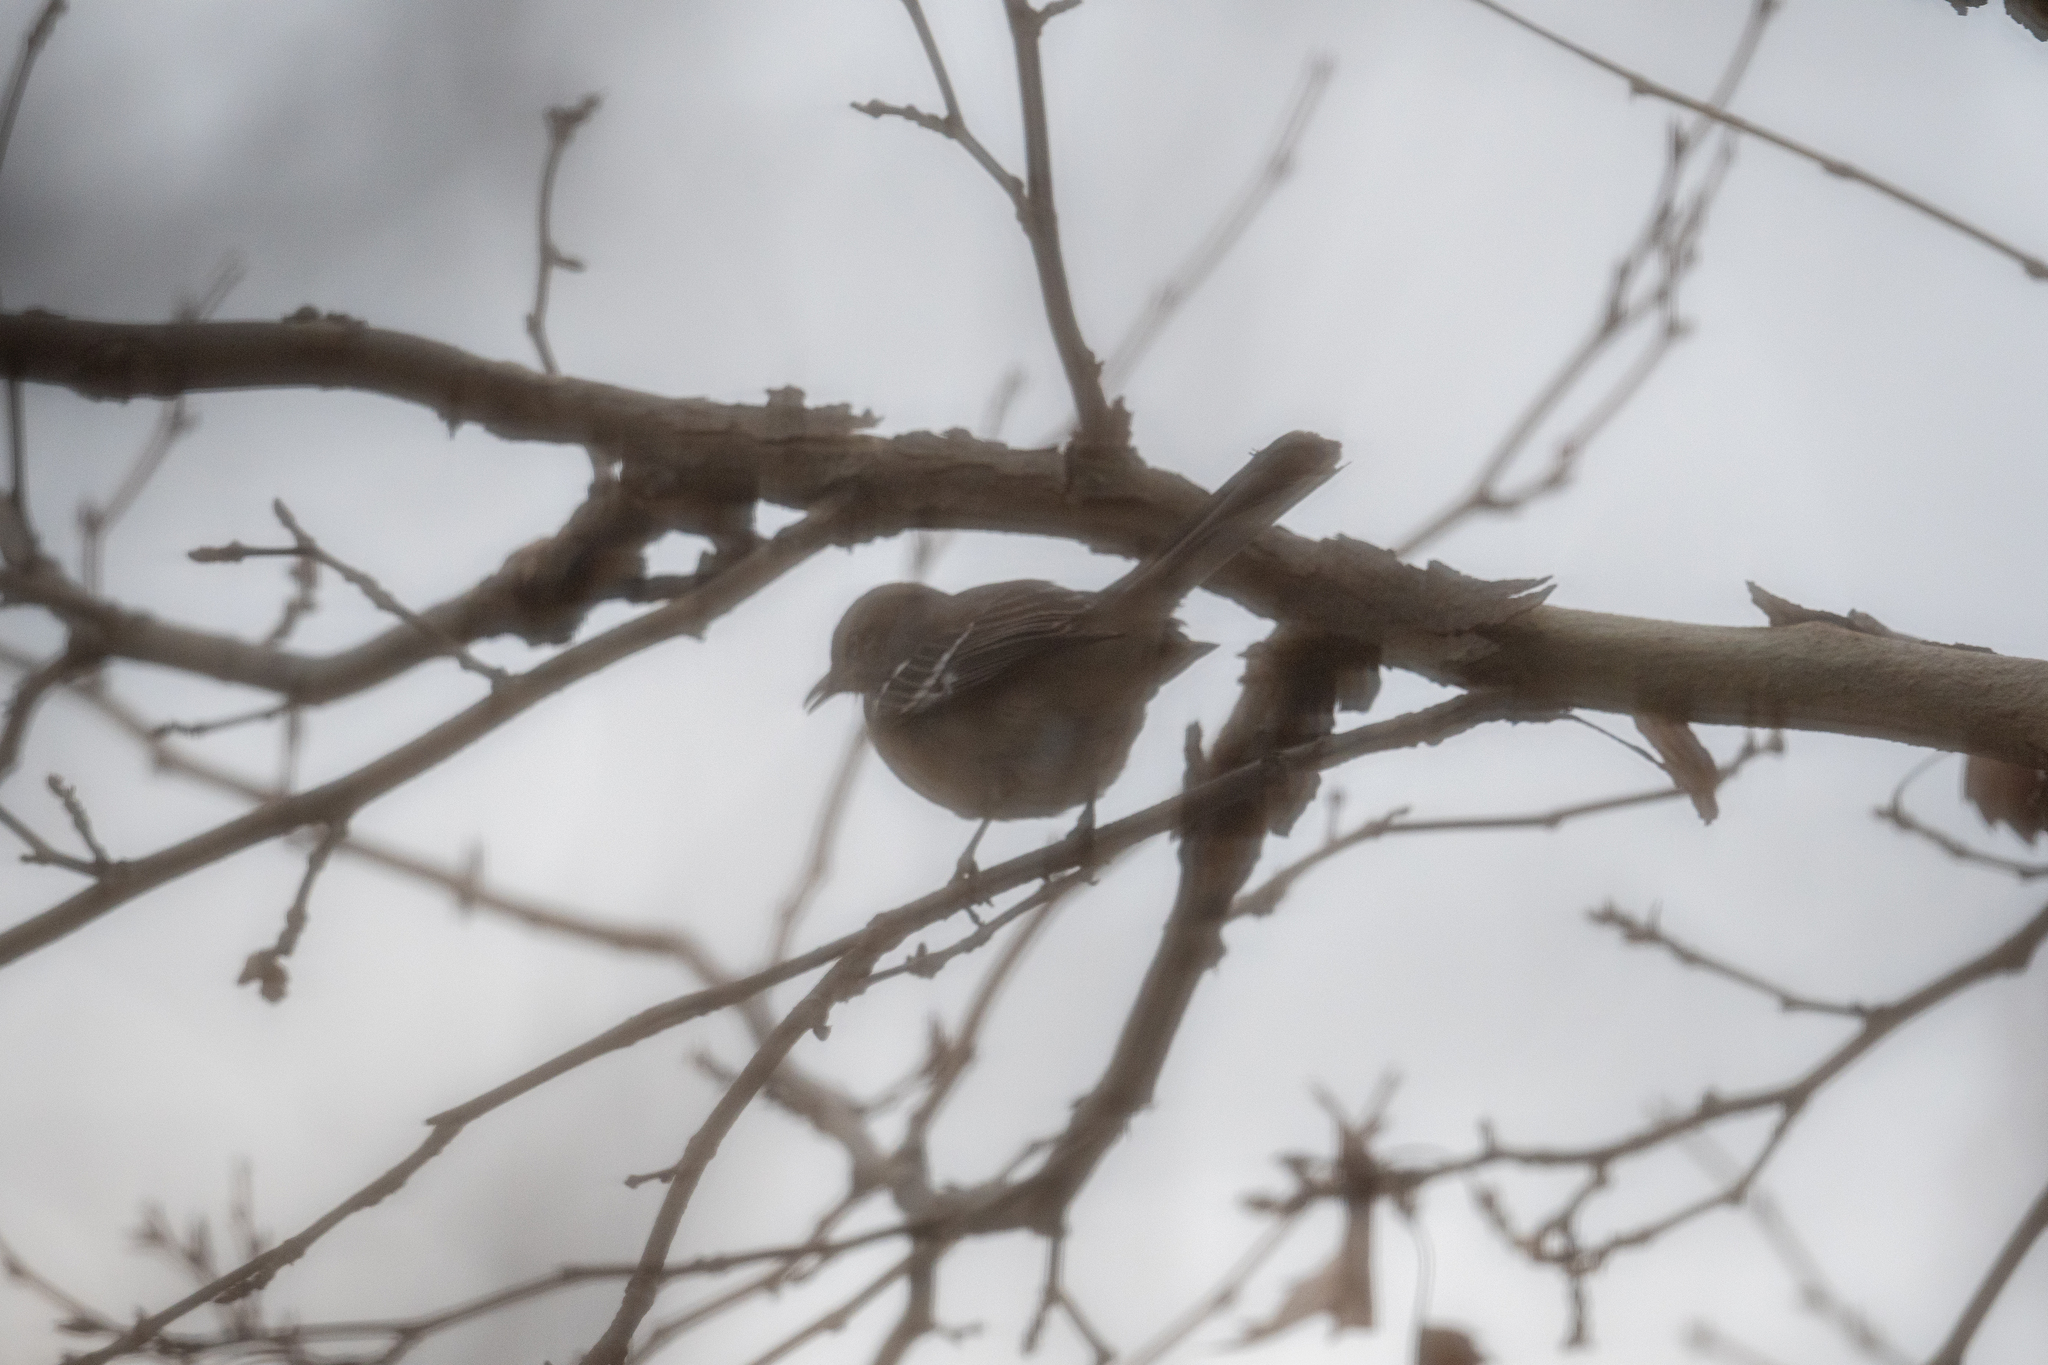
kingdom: Animalia
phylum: Chordata
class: Aves
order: Passeriformes
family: Mimidae
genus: Mimus
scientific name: Mimus polyglottos
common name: Northern mockingbird
